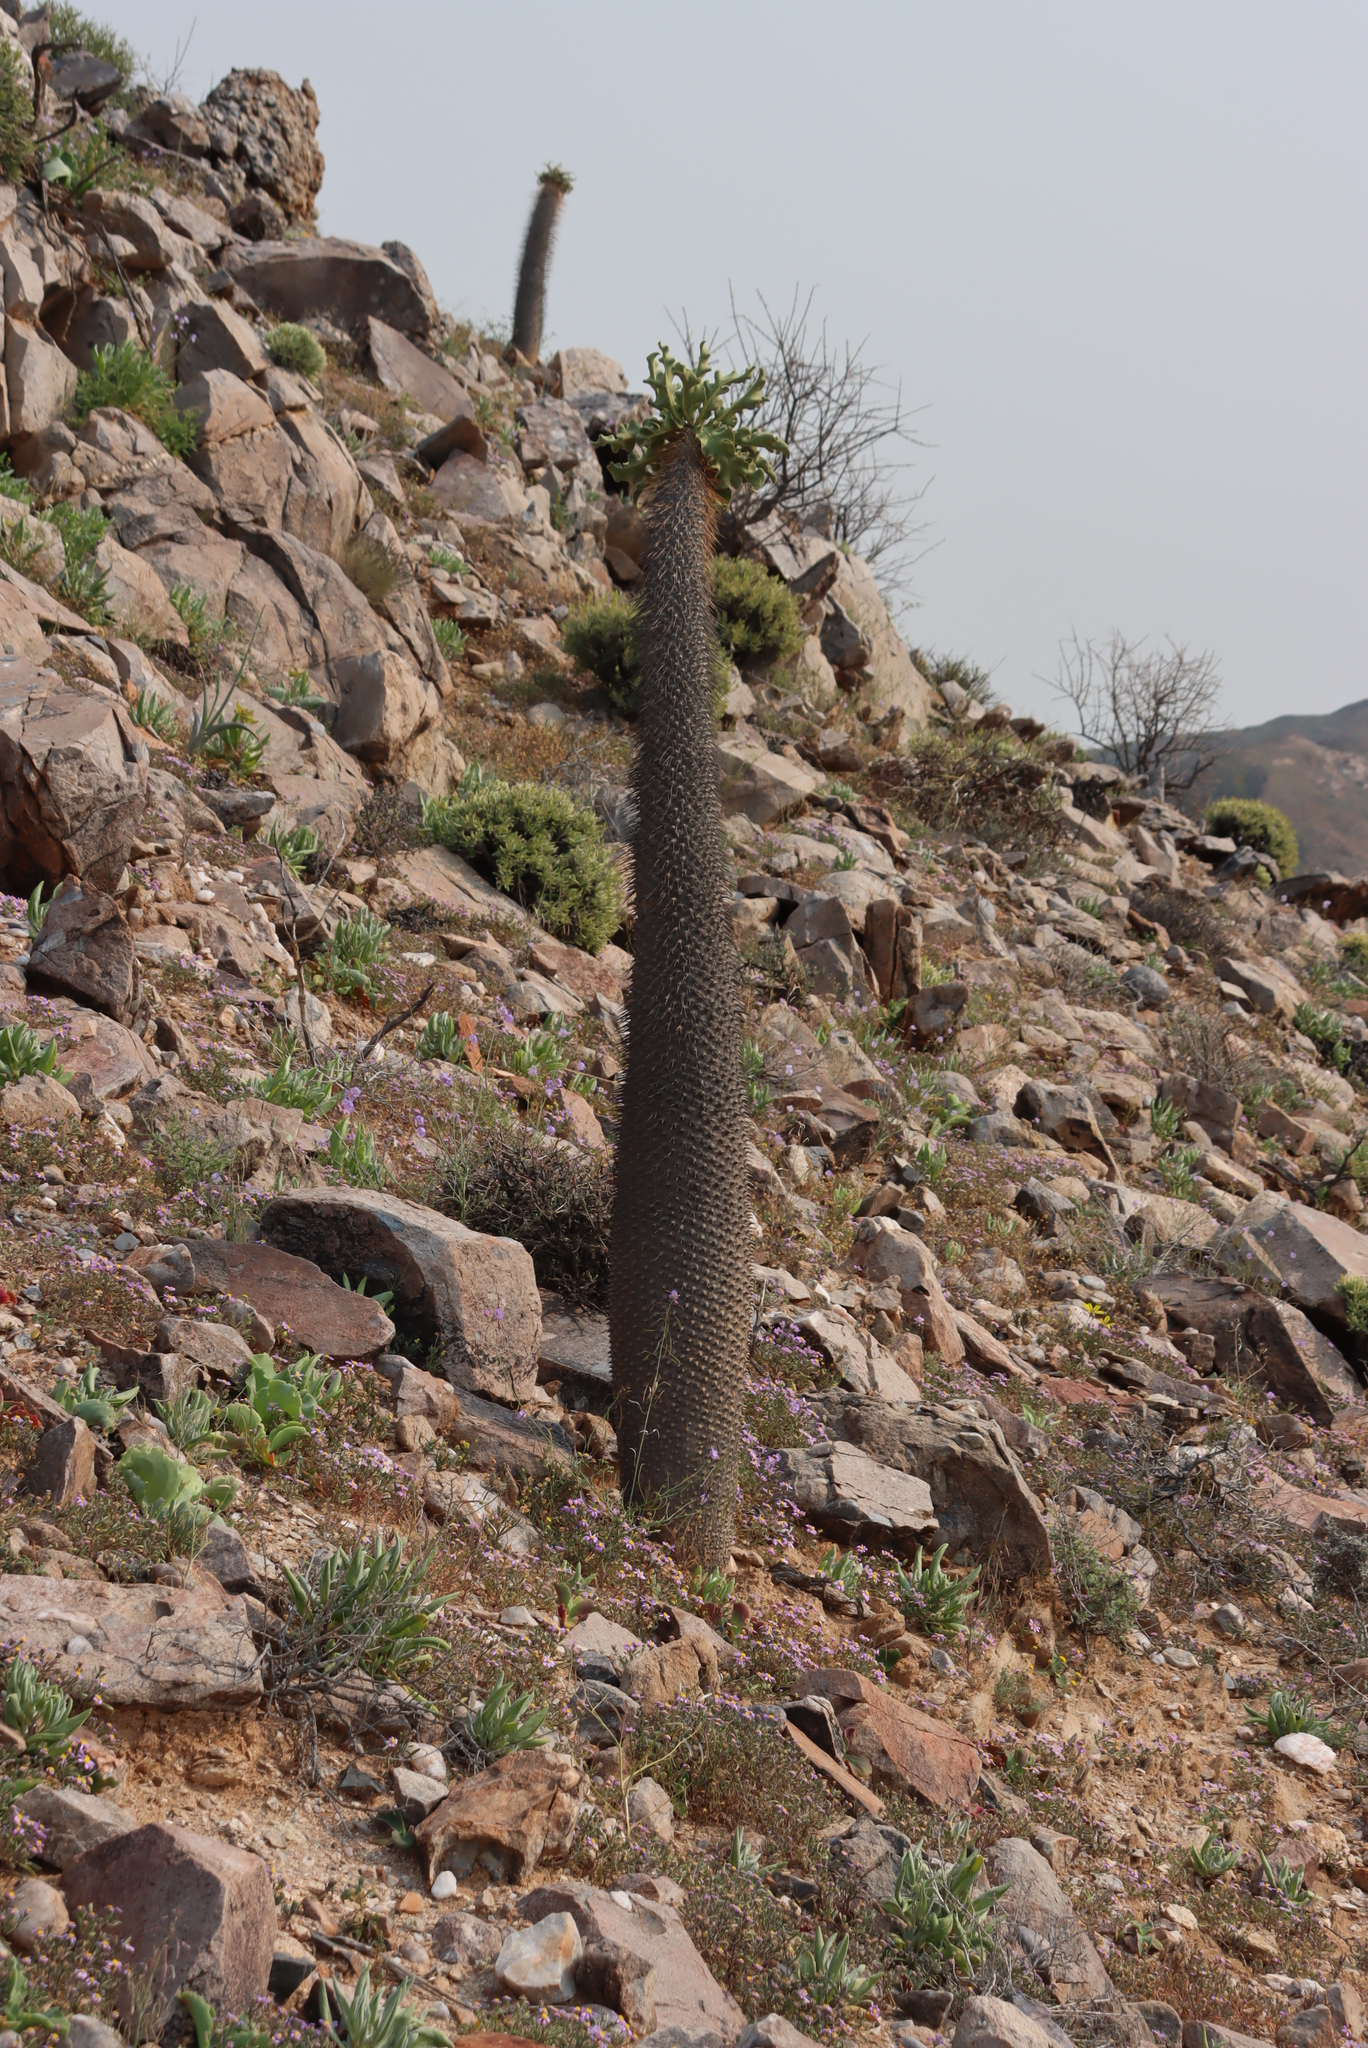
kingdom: Plantae
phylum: Tracheophyta
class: Magnoliopsida
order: Gentianales
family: Apocynaceae
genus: Pachypodium
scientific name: Pachypodium namaquanum
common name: Elephant's trunk
